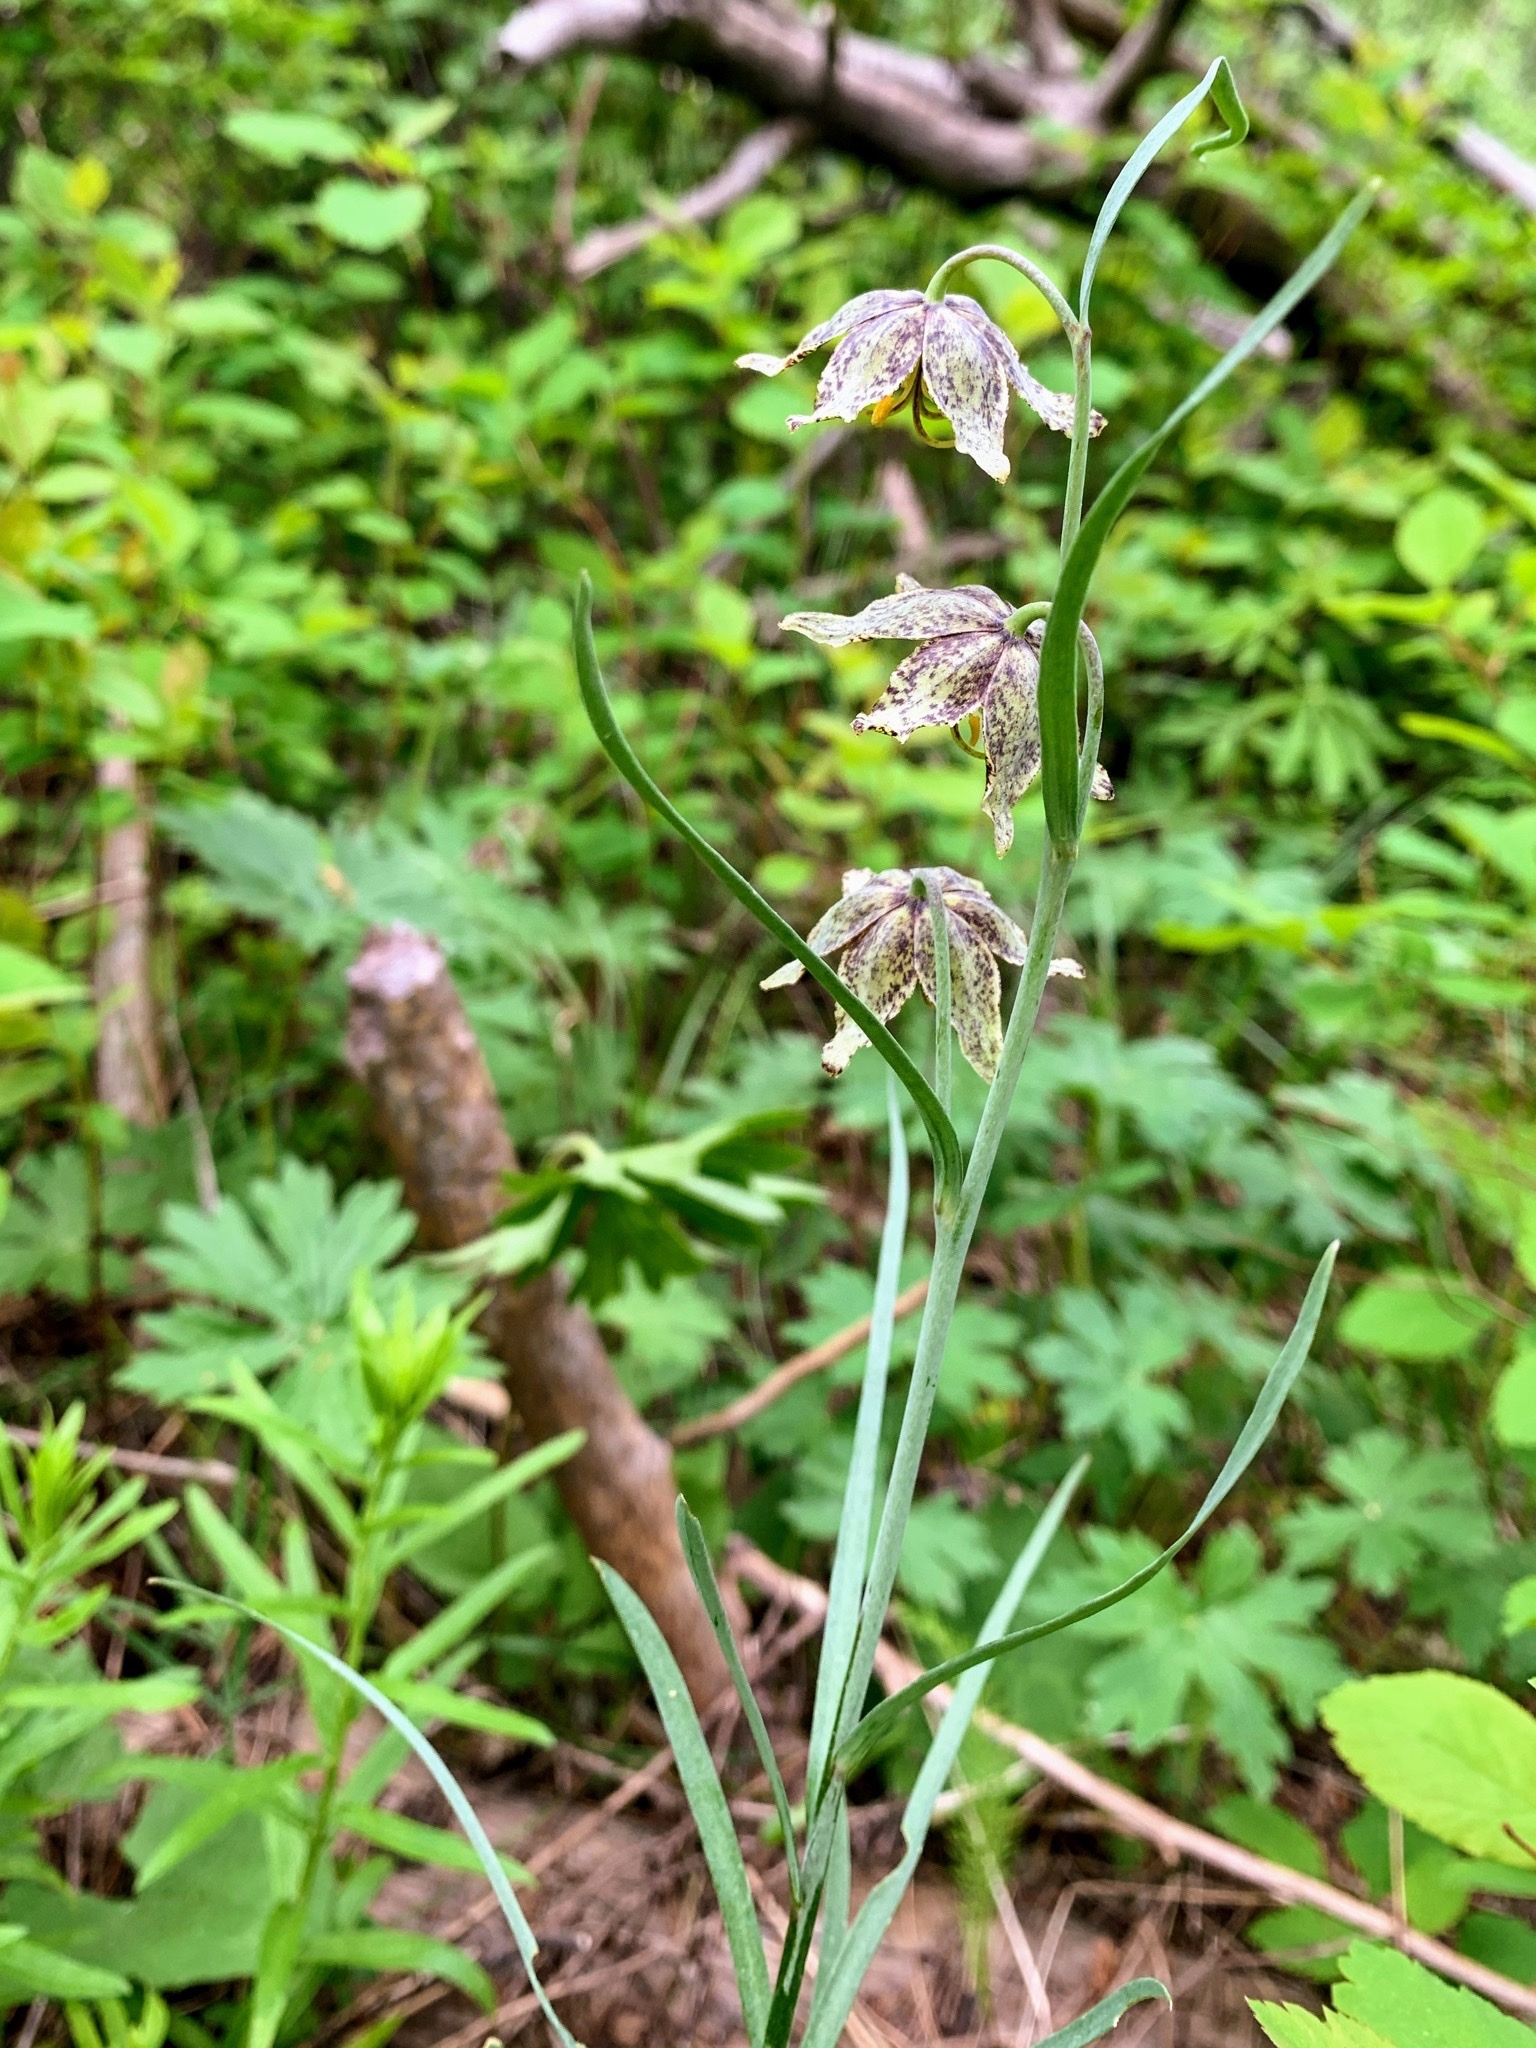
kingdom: Plantae
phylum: Tracheophyta
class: Liliopsida
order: Liliales
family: Liliaceae
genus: Fritillaria
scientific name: Fritillaria atropurpurea
